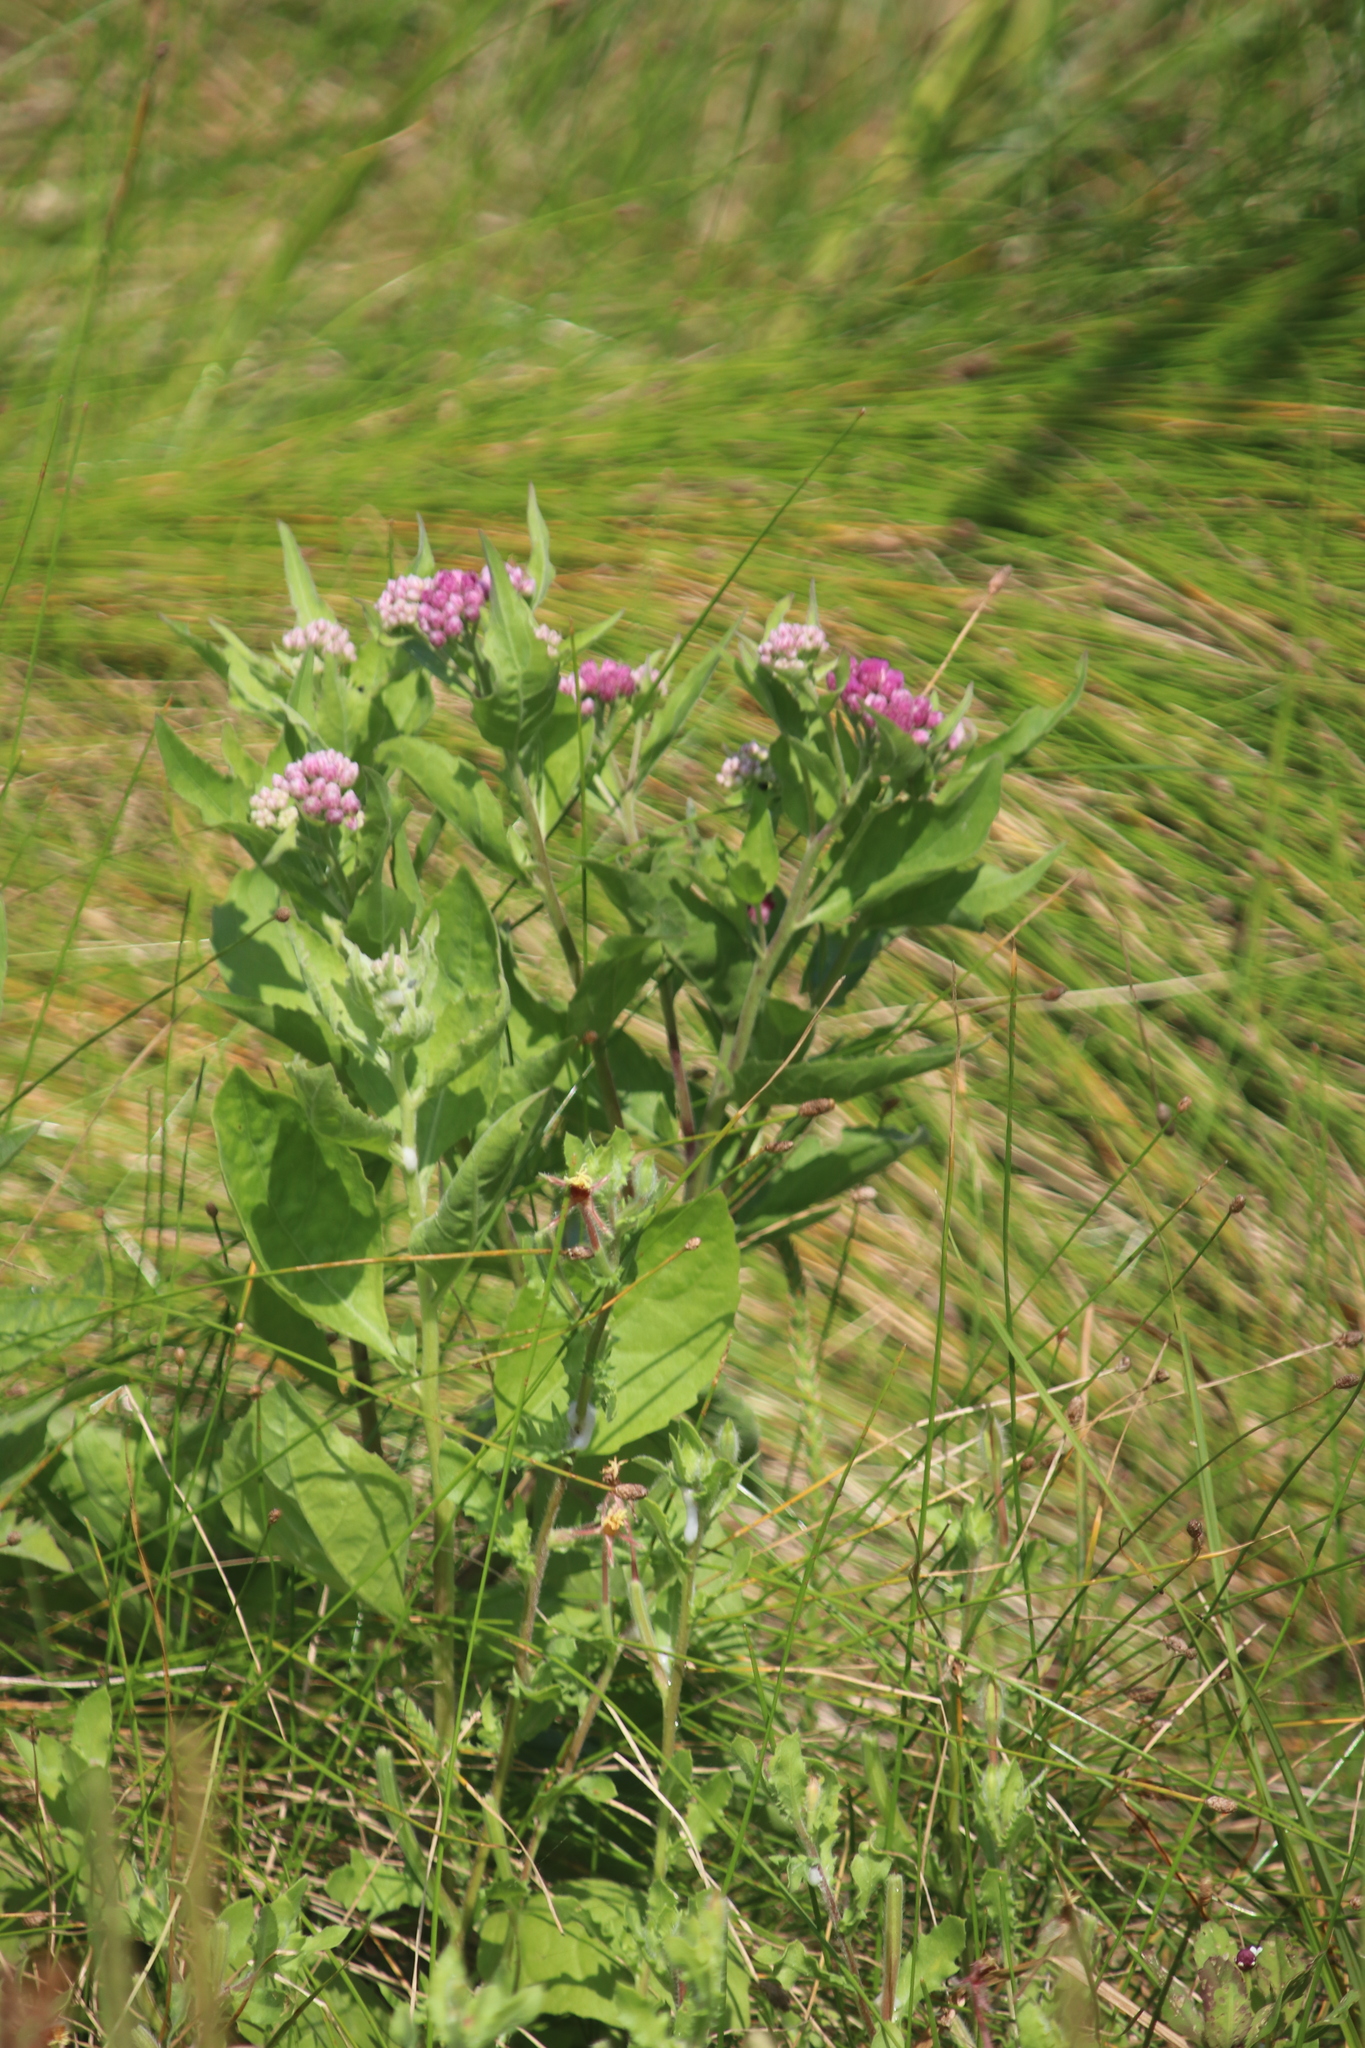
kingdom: Plantae
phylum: Tracheophyta
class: Magnoliopsida
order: Asterales
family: Asteraceae
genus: Pluchea
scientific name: Pluchea odorata
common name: Saltmarsh fleabane
